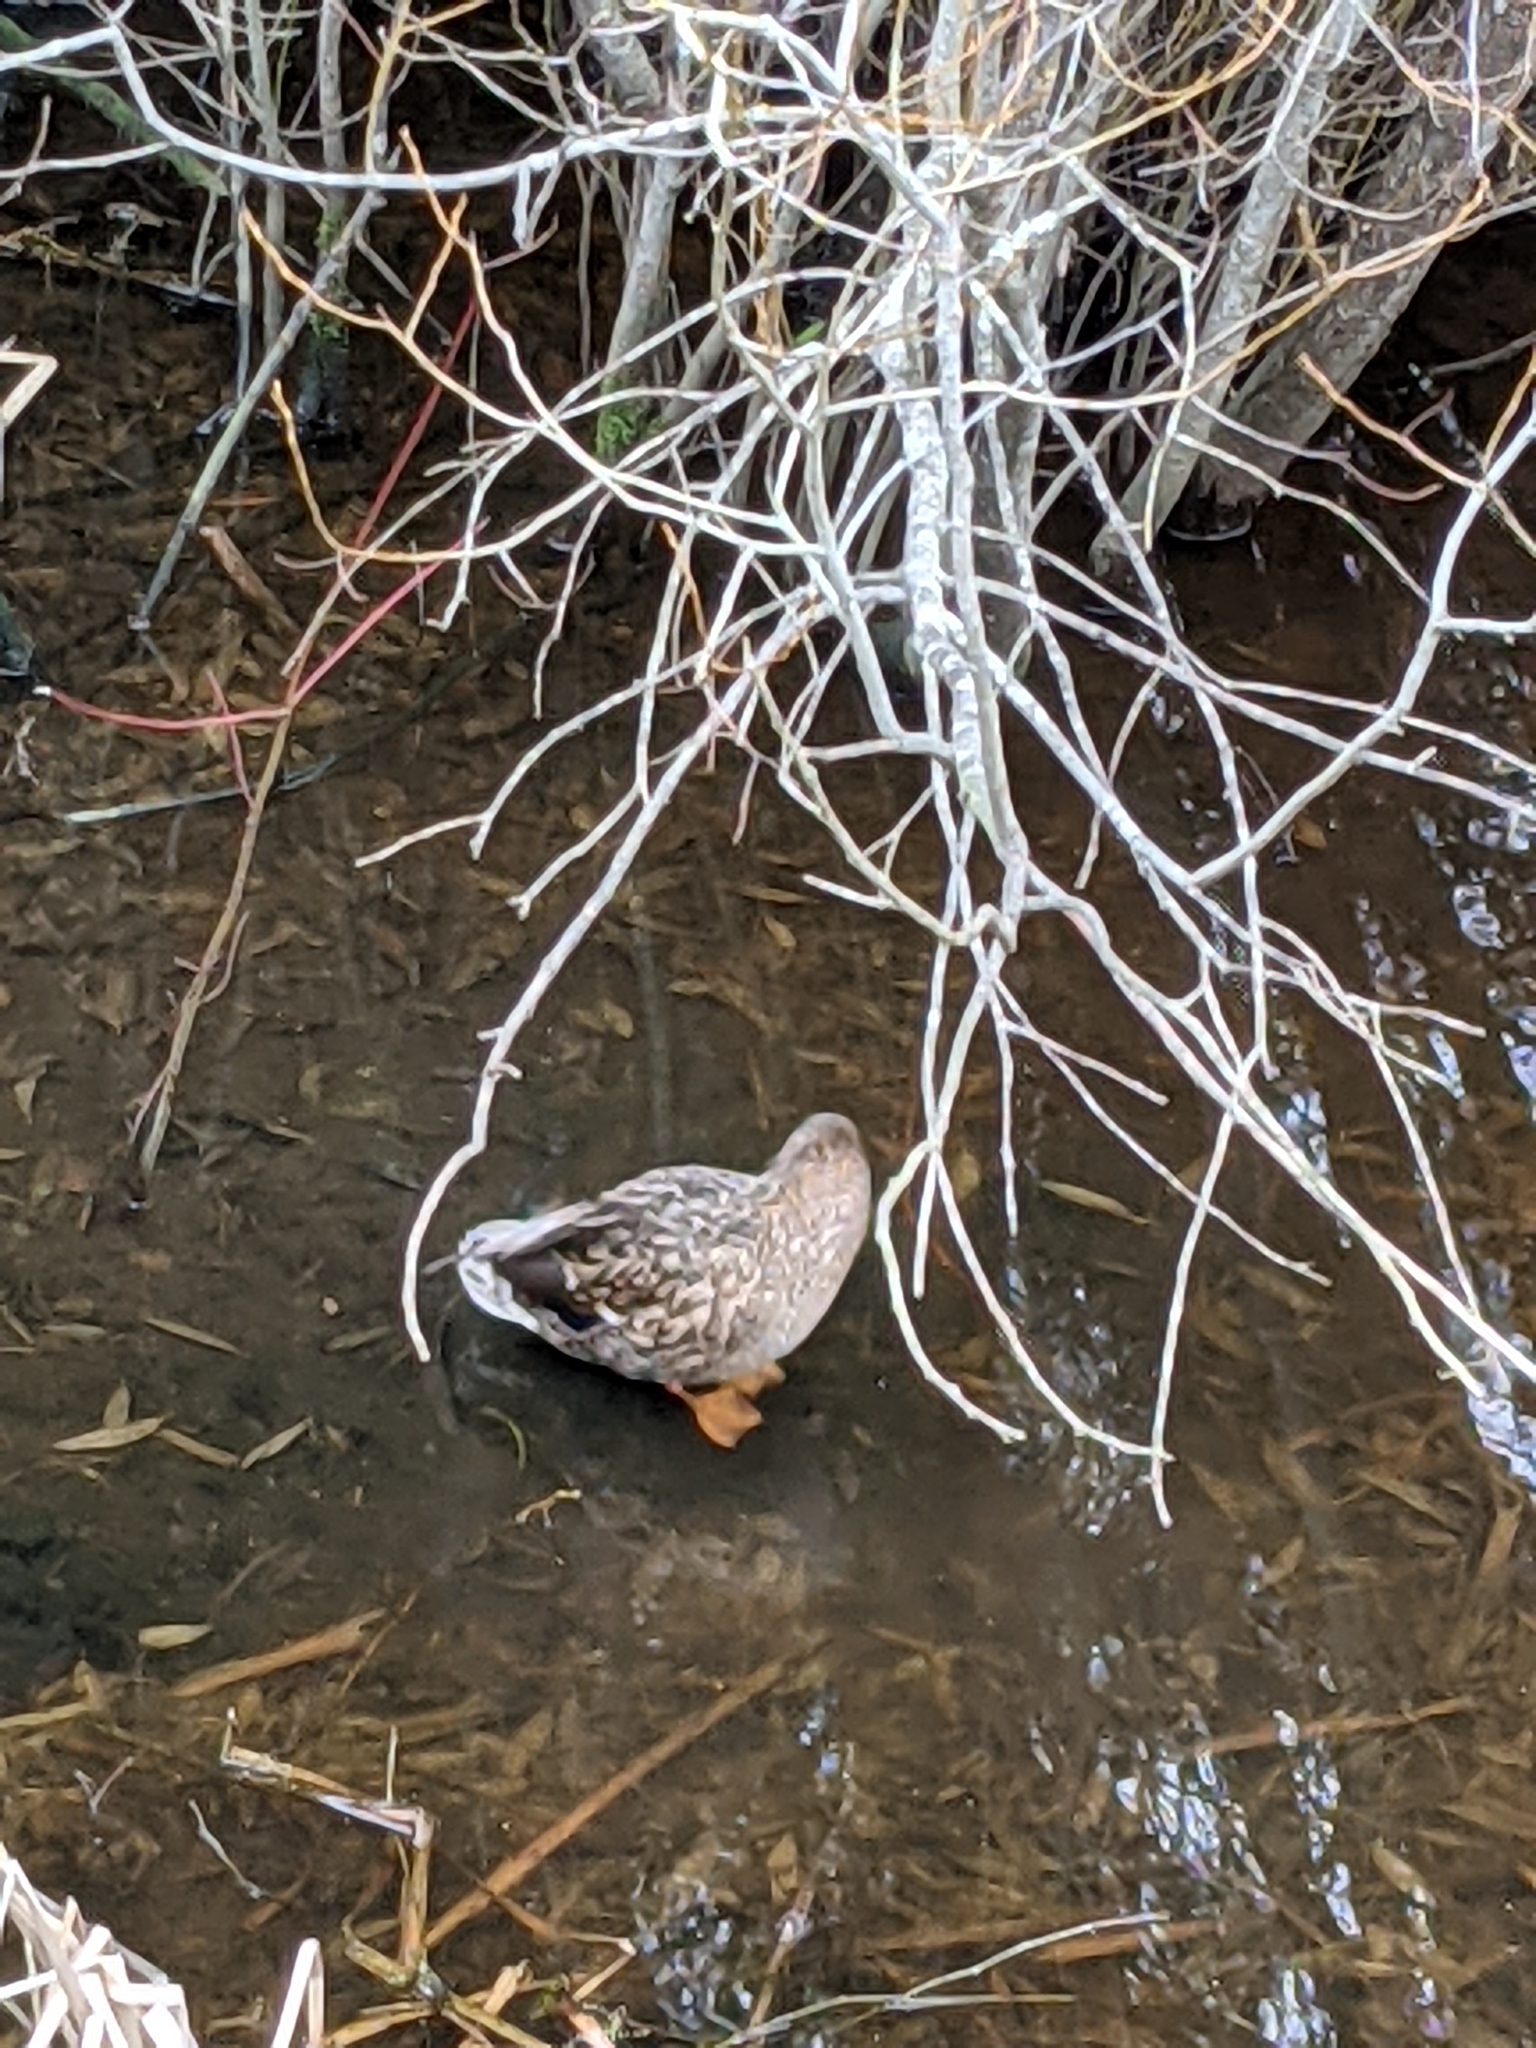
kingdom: Animalia
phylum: Chordata
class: Aves
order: Anseriformes
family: Anatidae
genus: Anas
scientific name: Anas platyrhynchos
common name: Mallard
